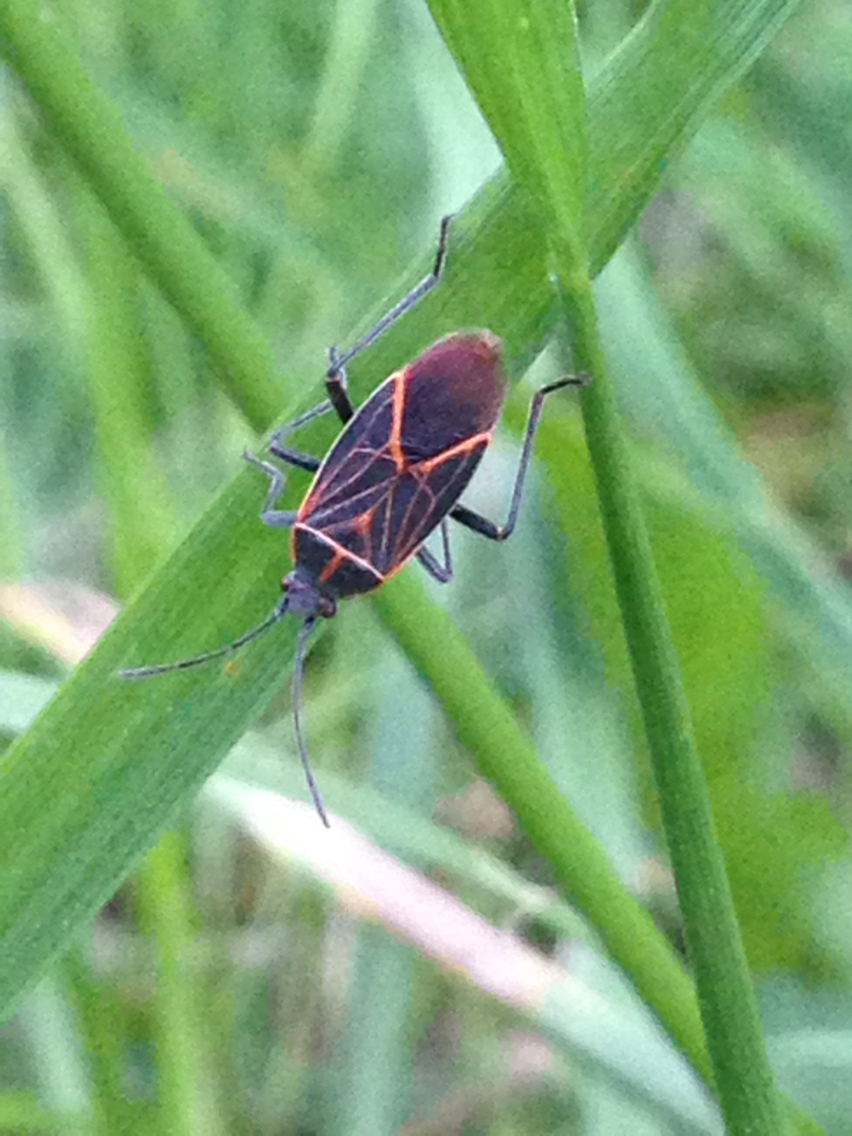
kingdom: Animalia
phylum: Arthropoda
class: Insecta
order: Hemiptera
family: Rhopalidae
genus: Boisea
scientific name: Boisea rubrolineata
